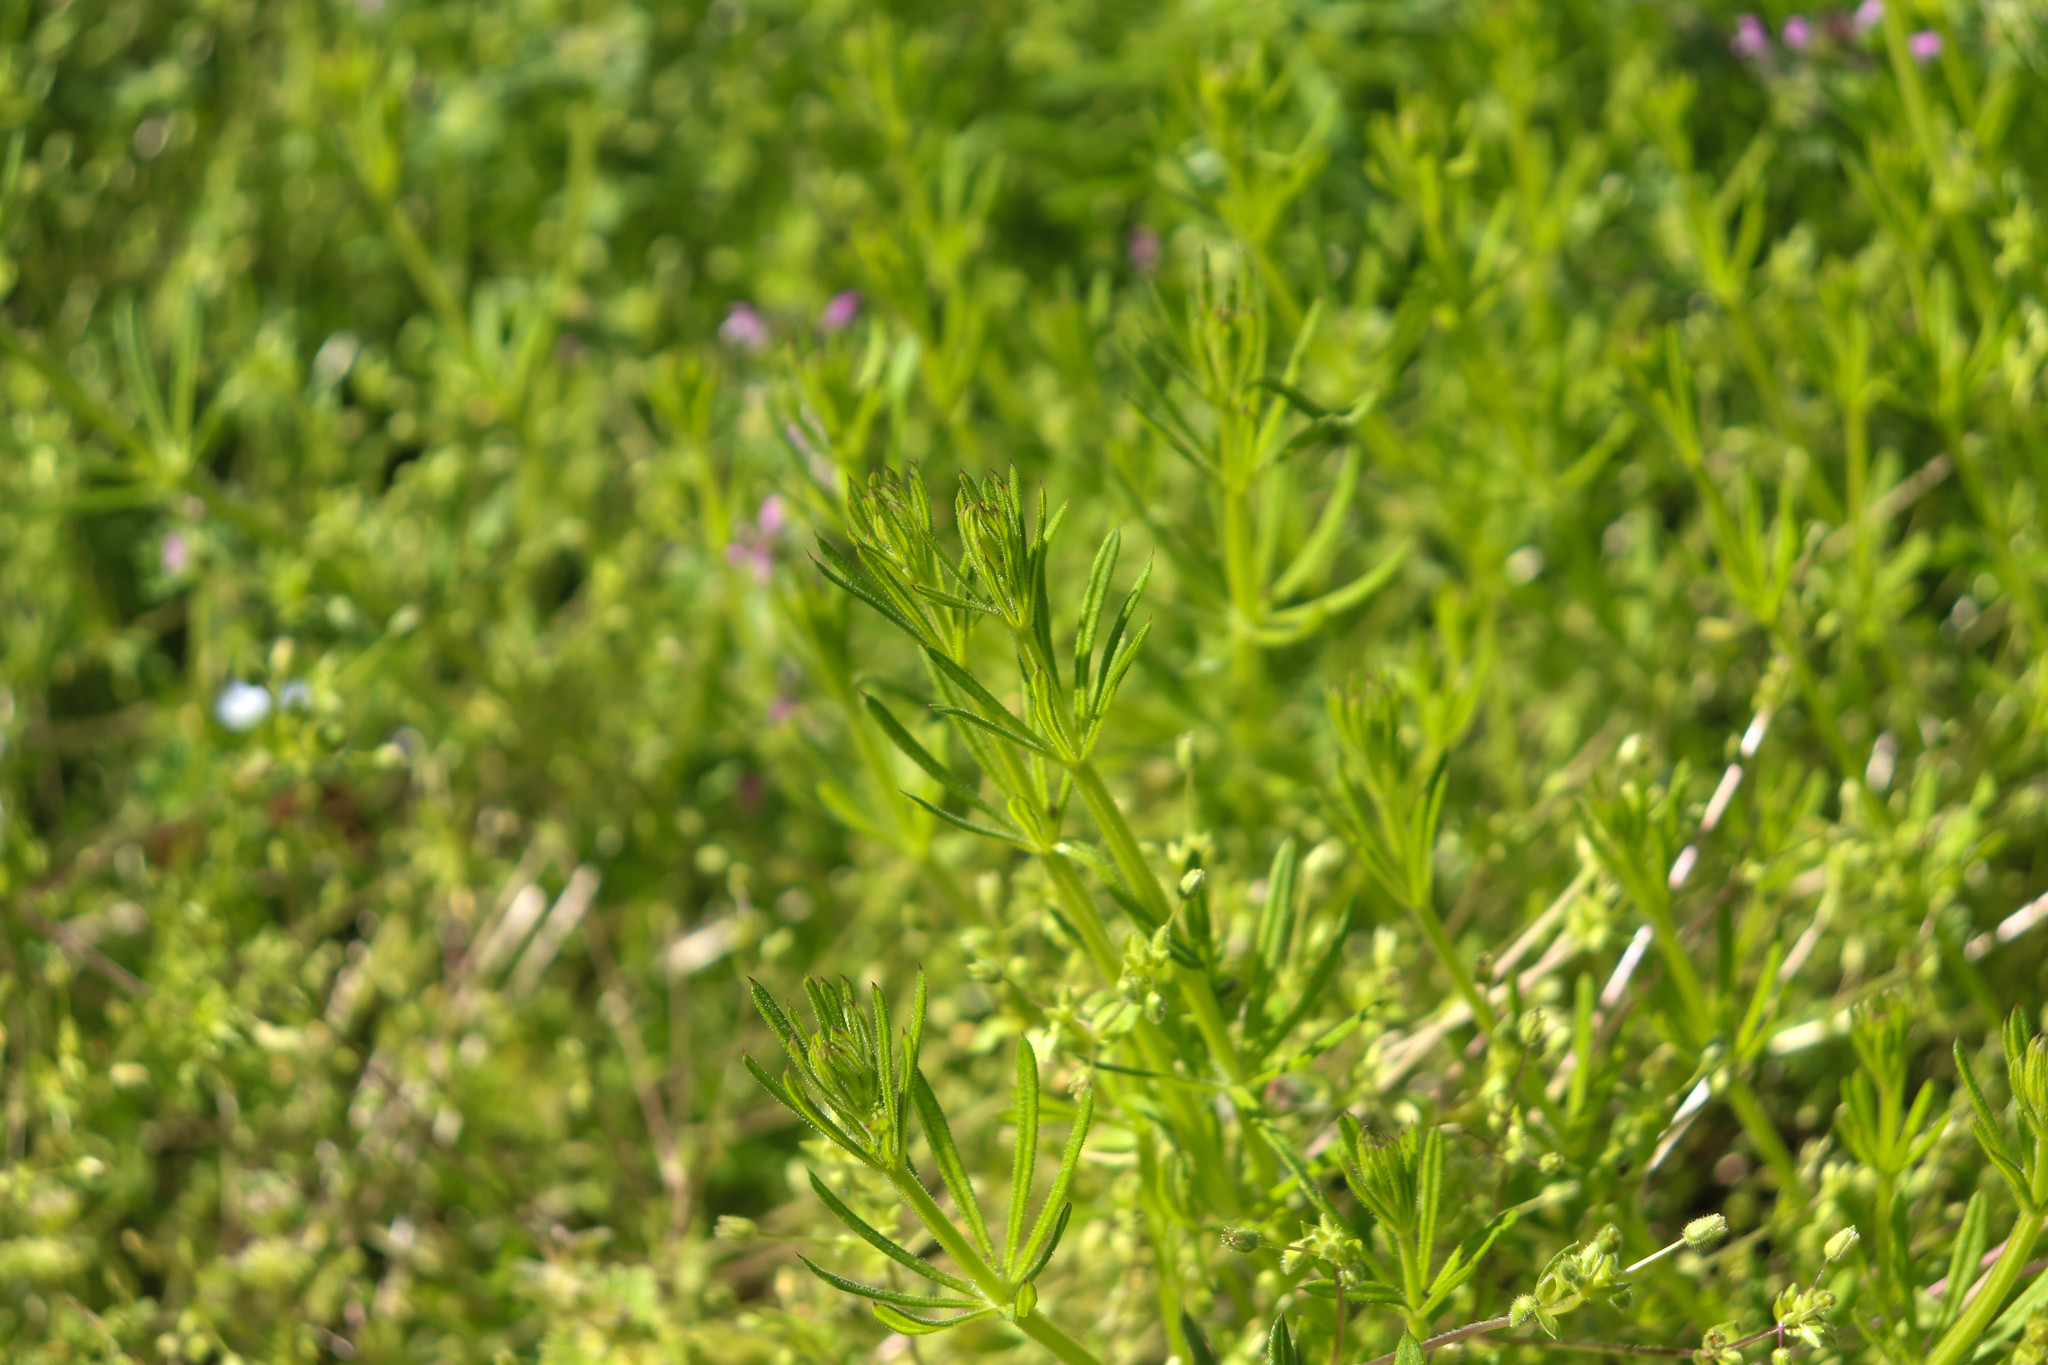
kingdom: Plantae
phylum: Tracheophyta
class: Magnoliopsida
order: Gentianales
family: Rubiaceae
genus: Galium
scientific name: Galium aparine
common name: Cleavers
